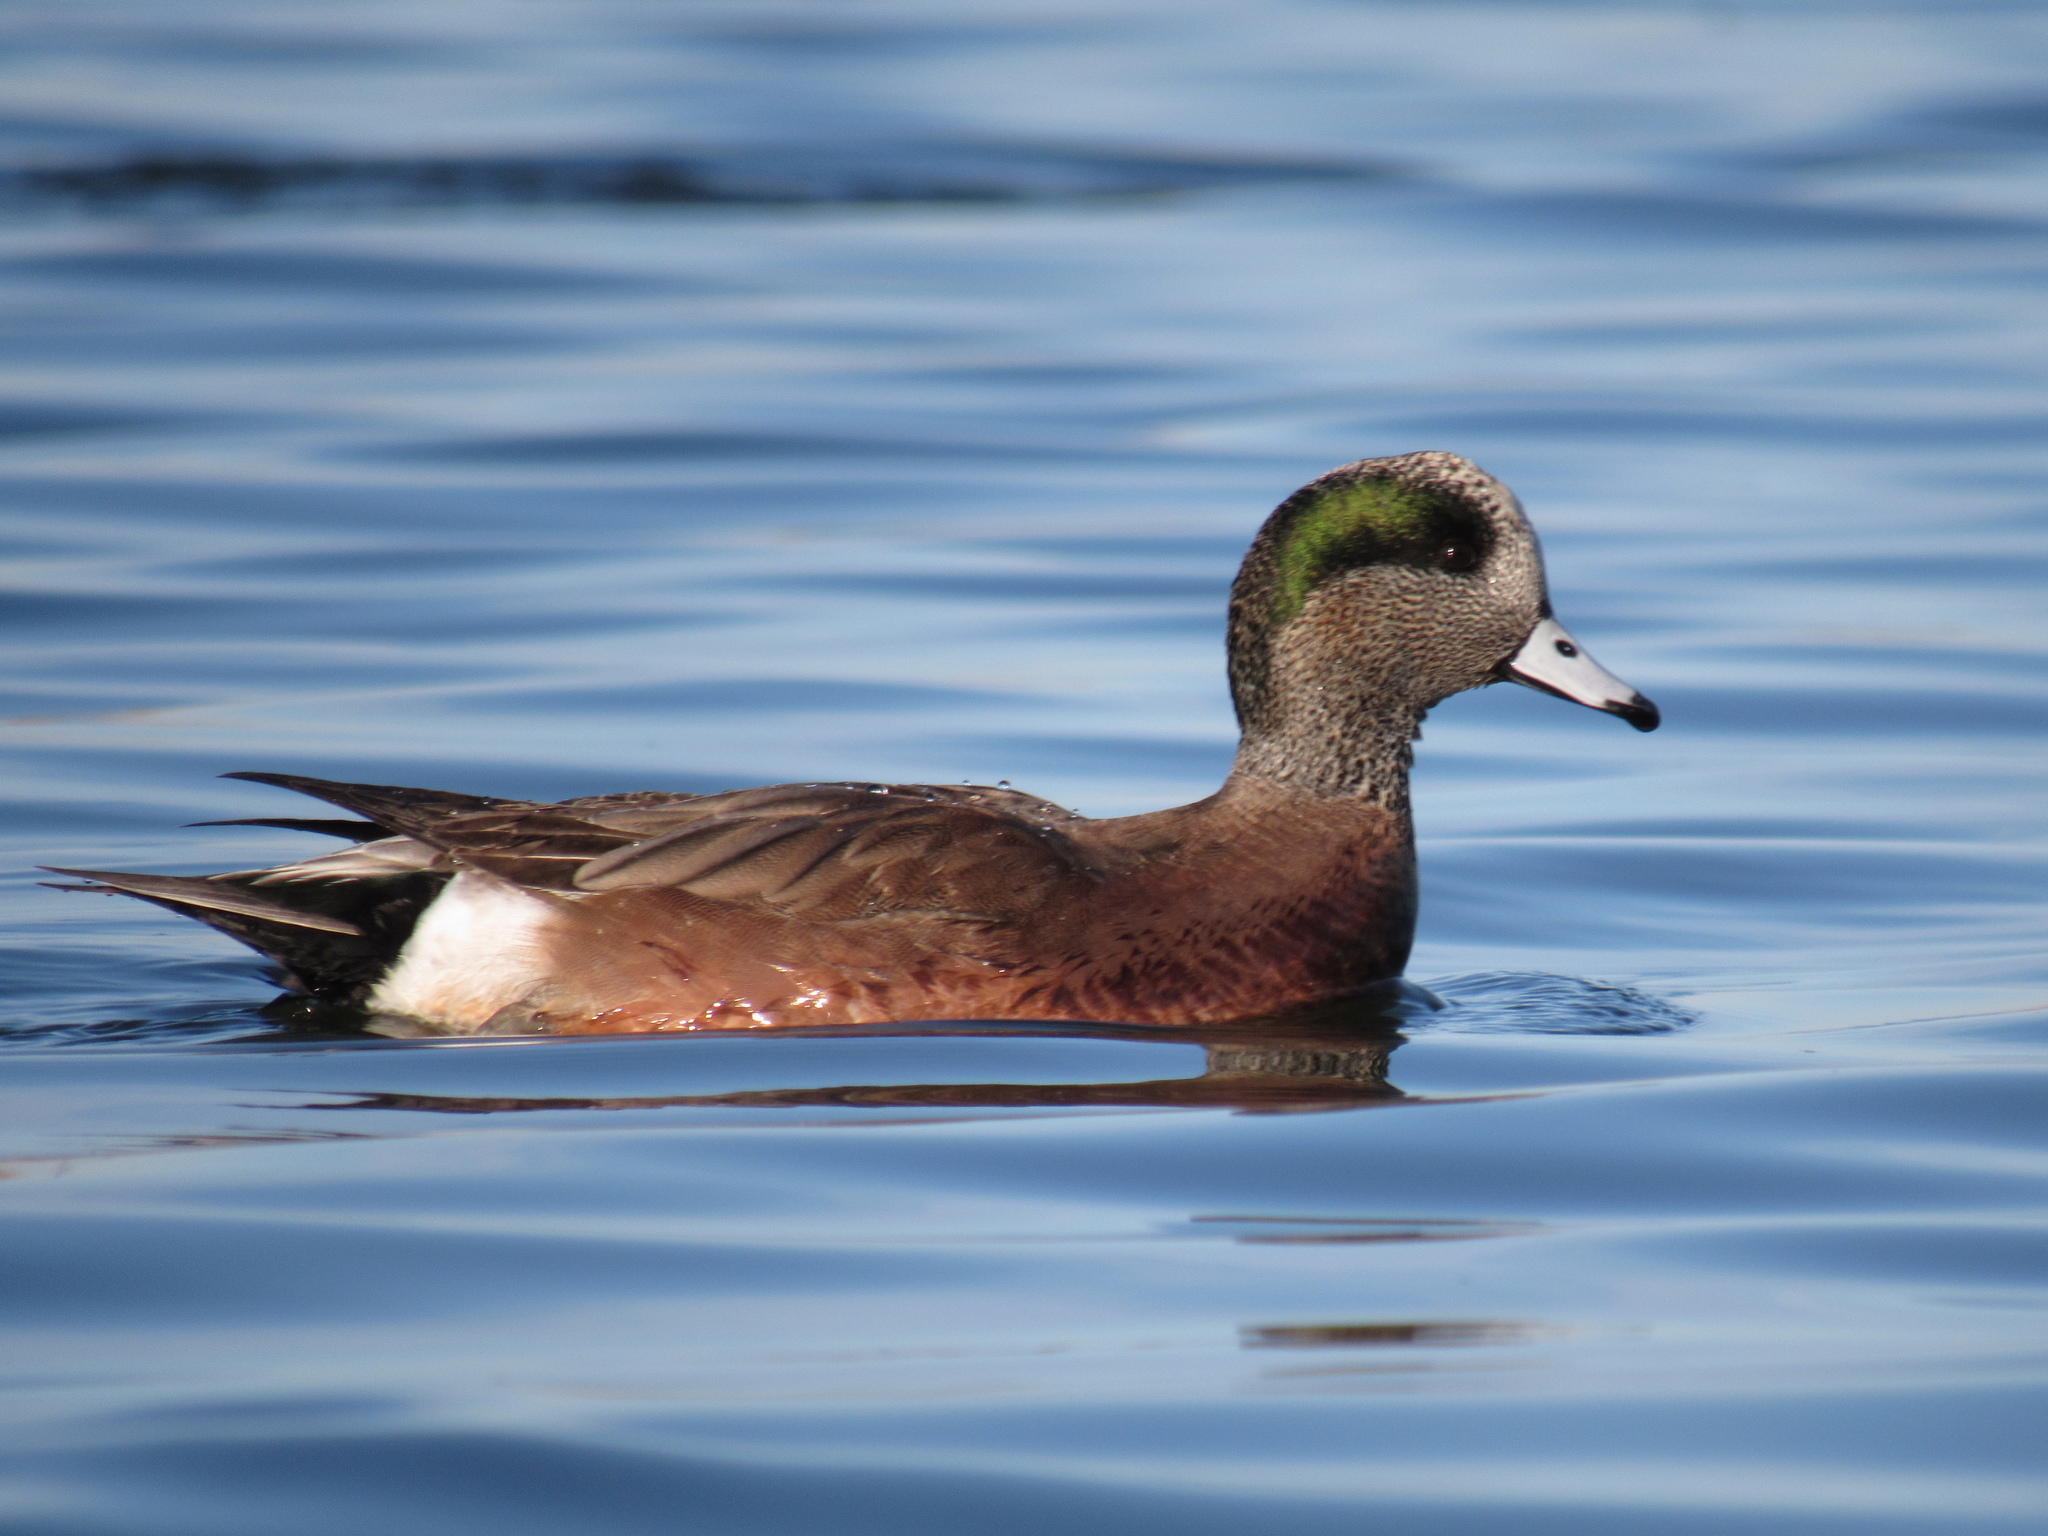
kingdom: Animalia
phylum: Chordata
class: Aves
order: Anseriformes
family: Anatidae
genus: Mareca
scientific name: Mareca americana
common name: American wigeon
